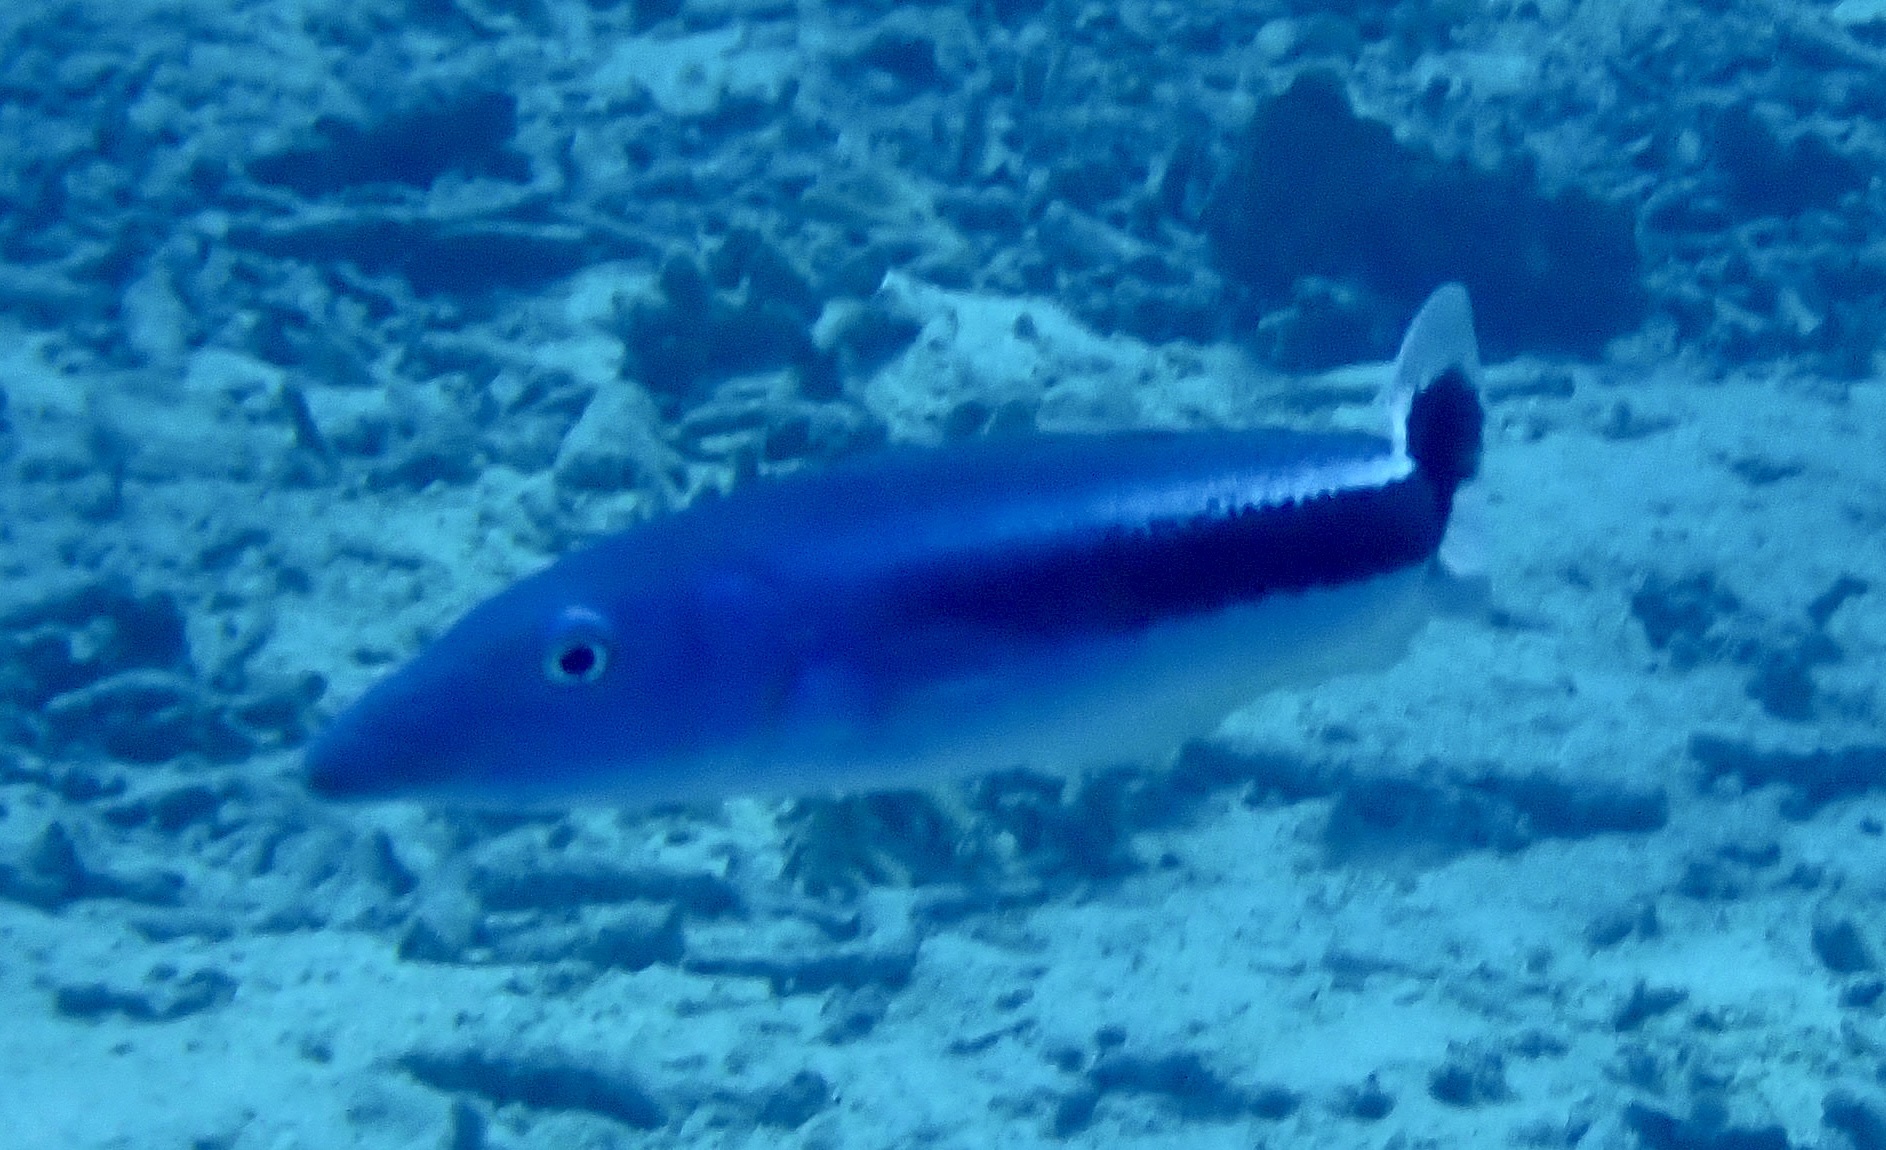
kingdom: Animalia
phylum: Chordata
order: Perciformes
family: Malacanthidae
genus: Malacanthus
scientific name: Malacanthus latovittatus
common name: Blue blanquillo
